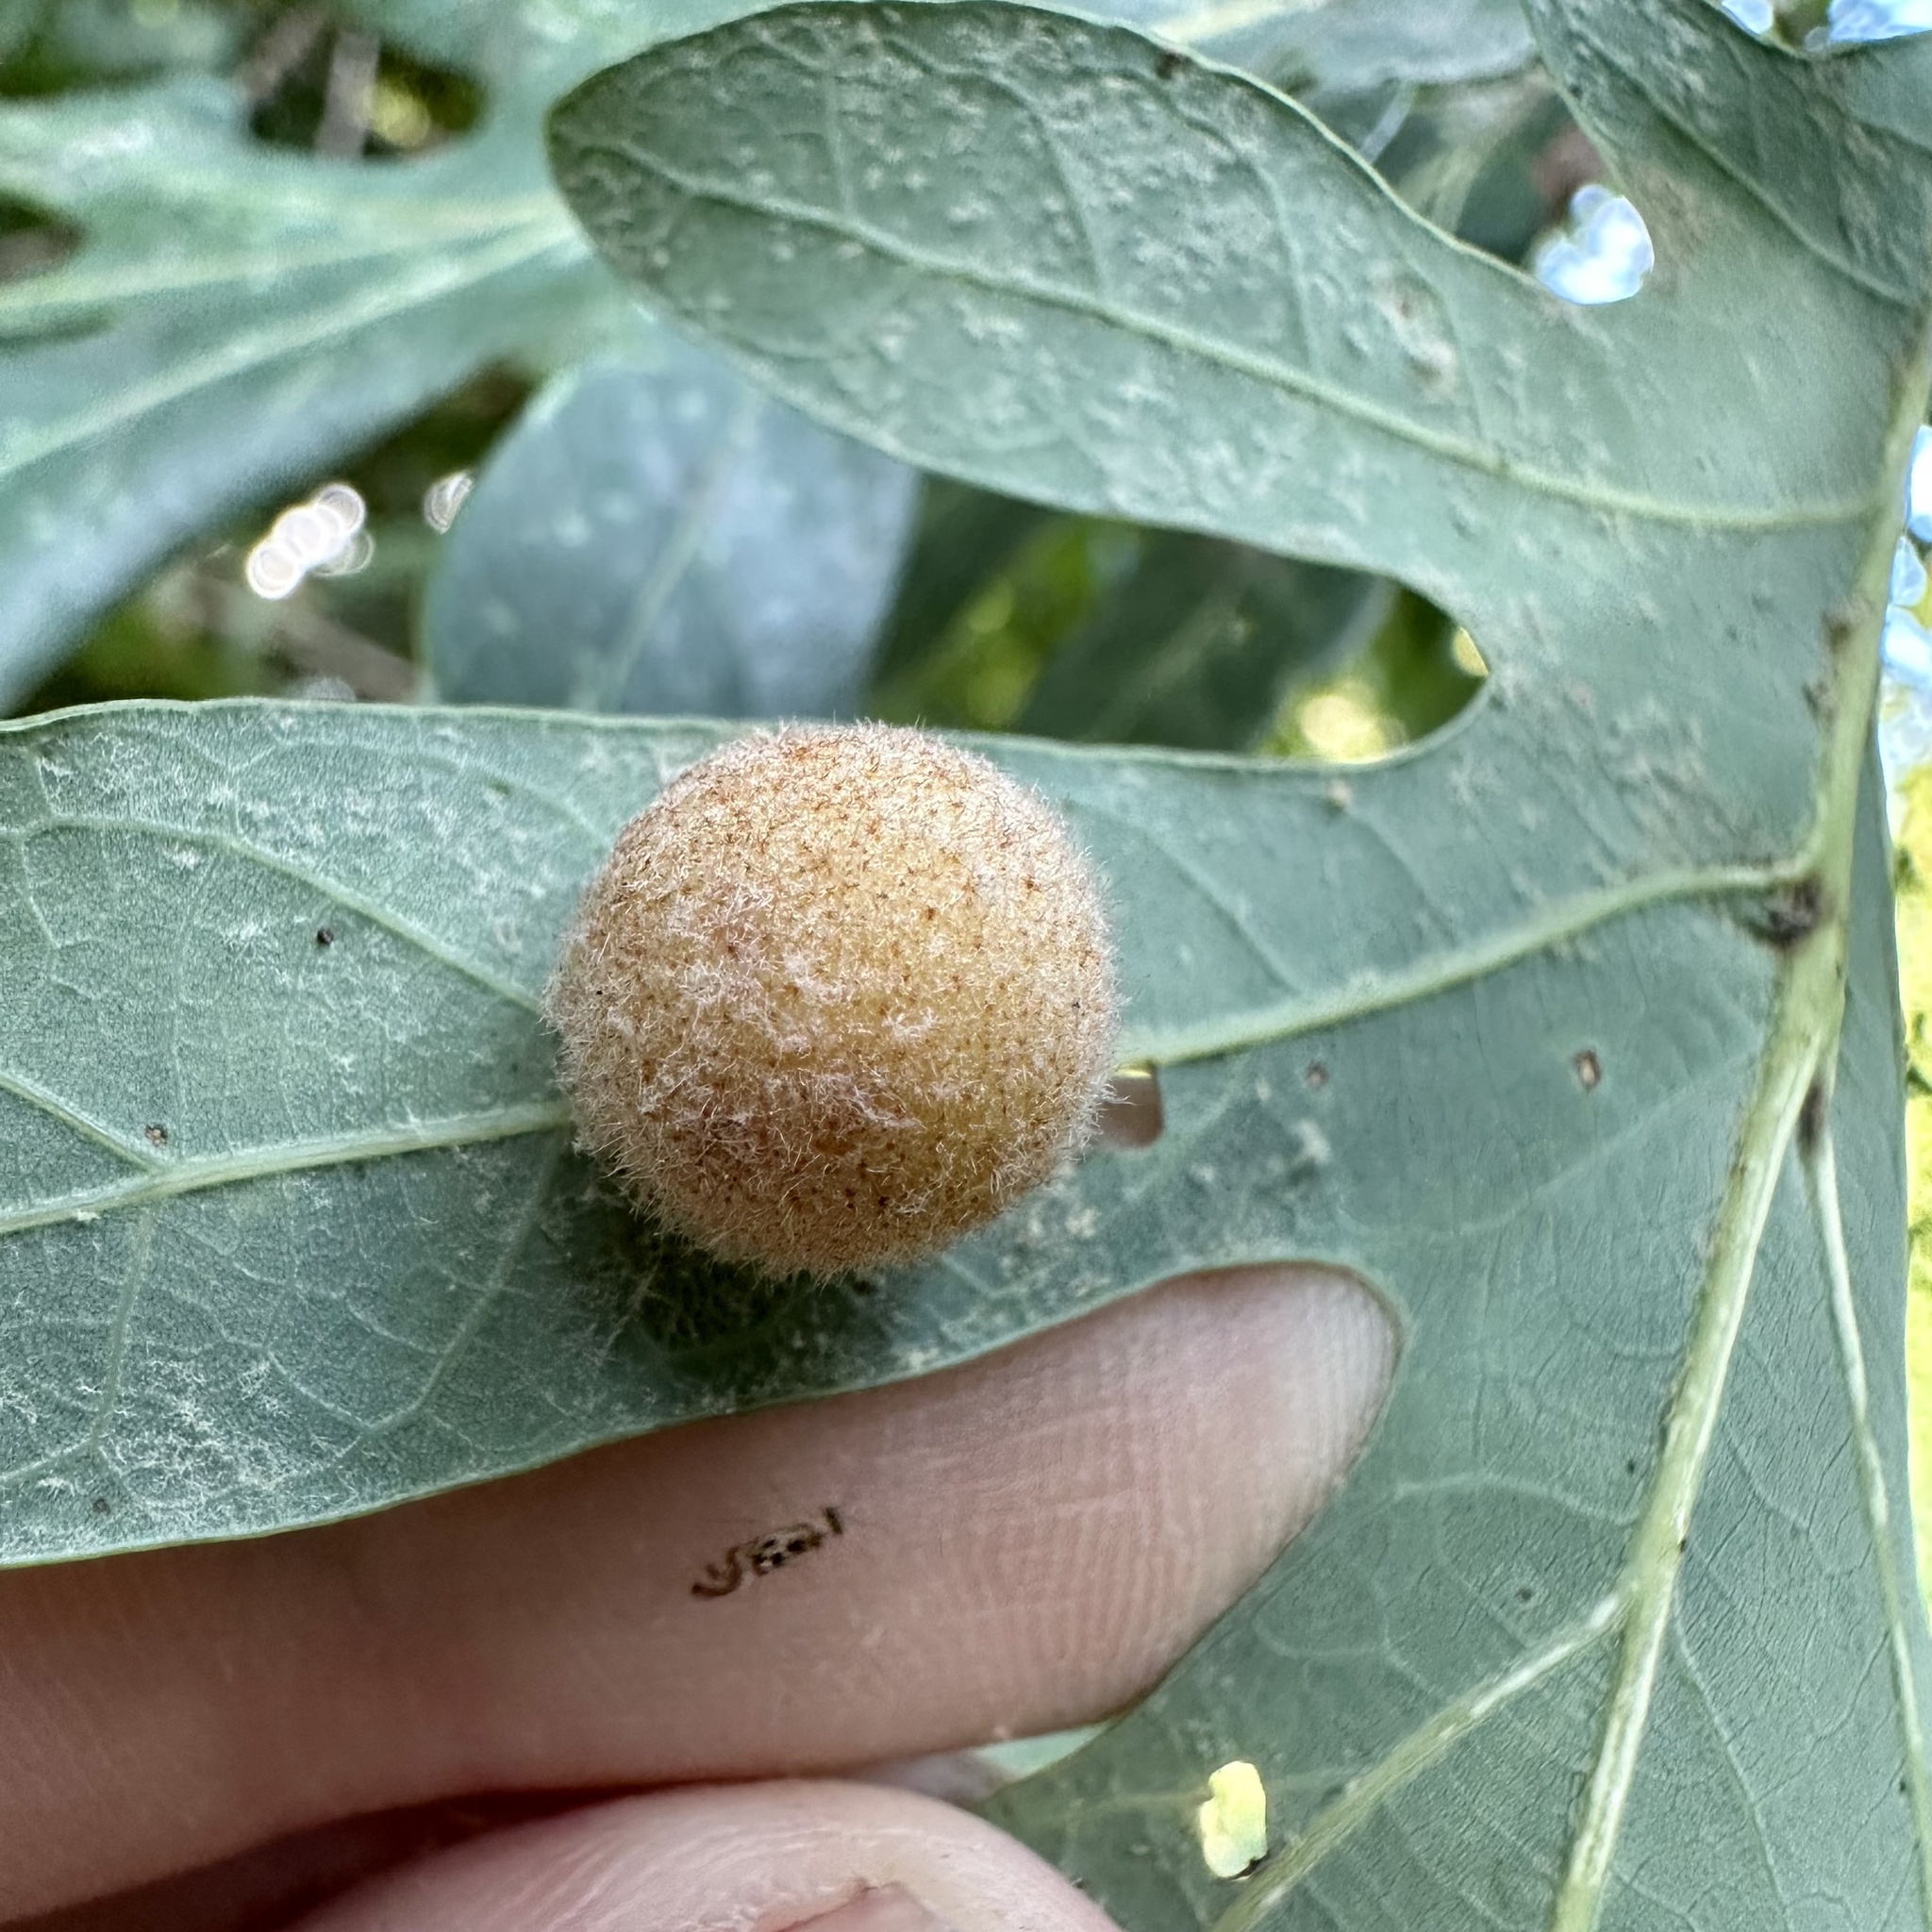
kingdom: Animalia
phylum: Arthropoda
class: Insecta
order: Hymenoptera
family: Cynipidae
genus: Philonix
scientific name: Philonix fulvicollis
